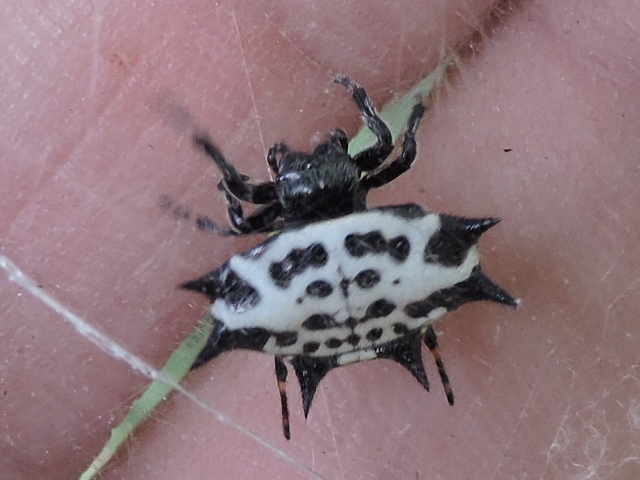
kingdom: Animalia
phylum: Arthropoda
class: Arachnida
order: Araneae
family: Araneidae
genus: Gasteracantha
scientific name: Gasteracantha cancriformis
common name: Orb weavers
